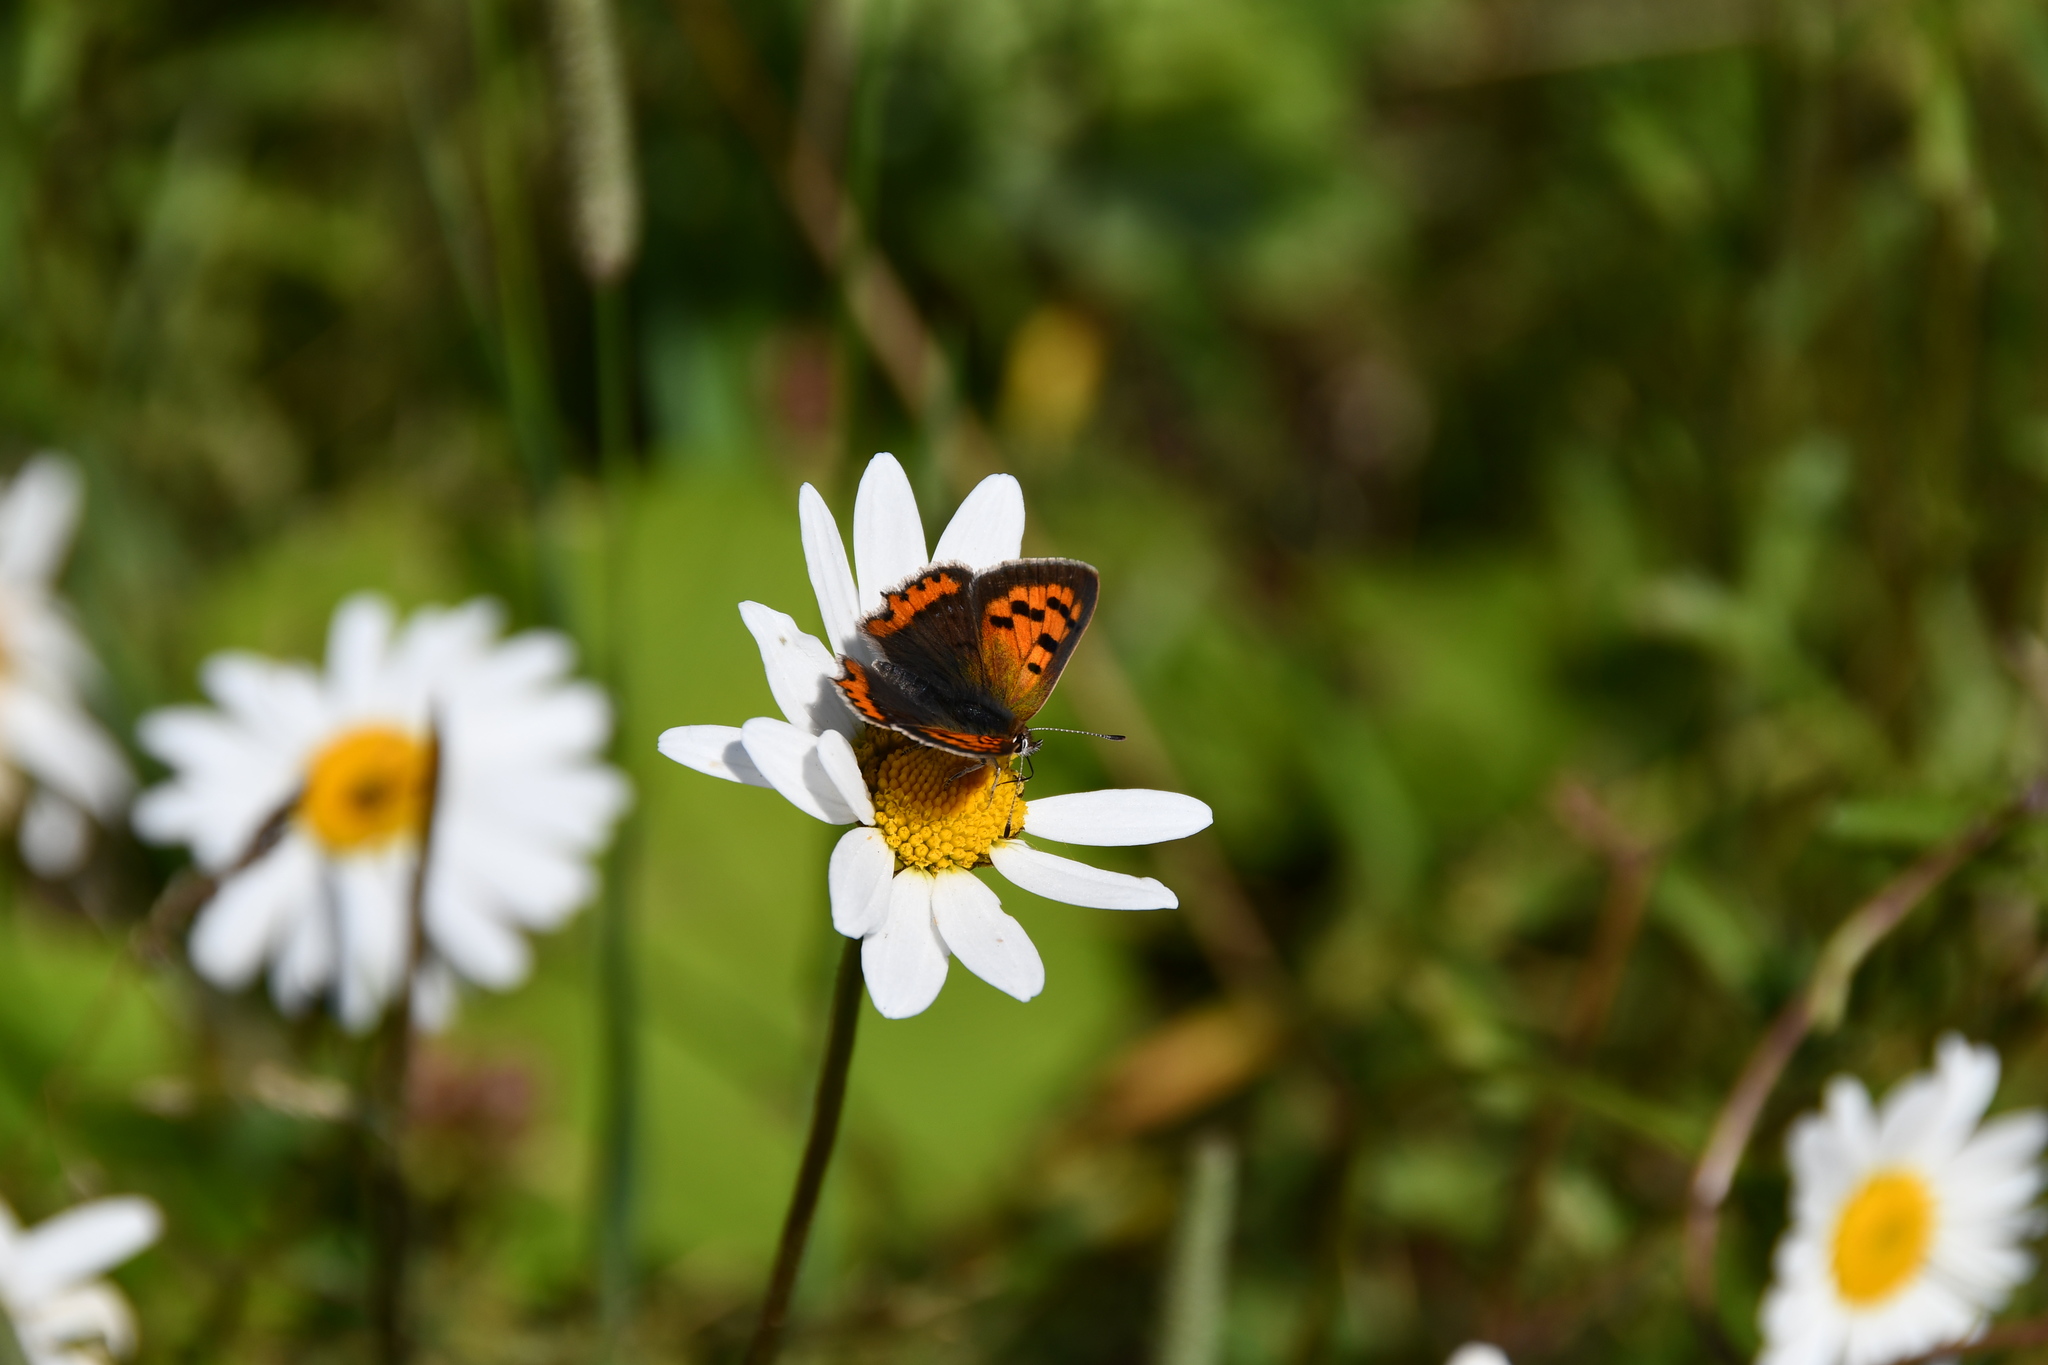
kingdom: Animalia
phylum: Arthropoda
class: Insecta
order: Lepidoptera
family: Lycaenidae
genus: Lycaena
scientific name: Lycaena phlaeas
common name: Small copper
